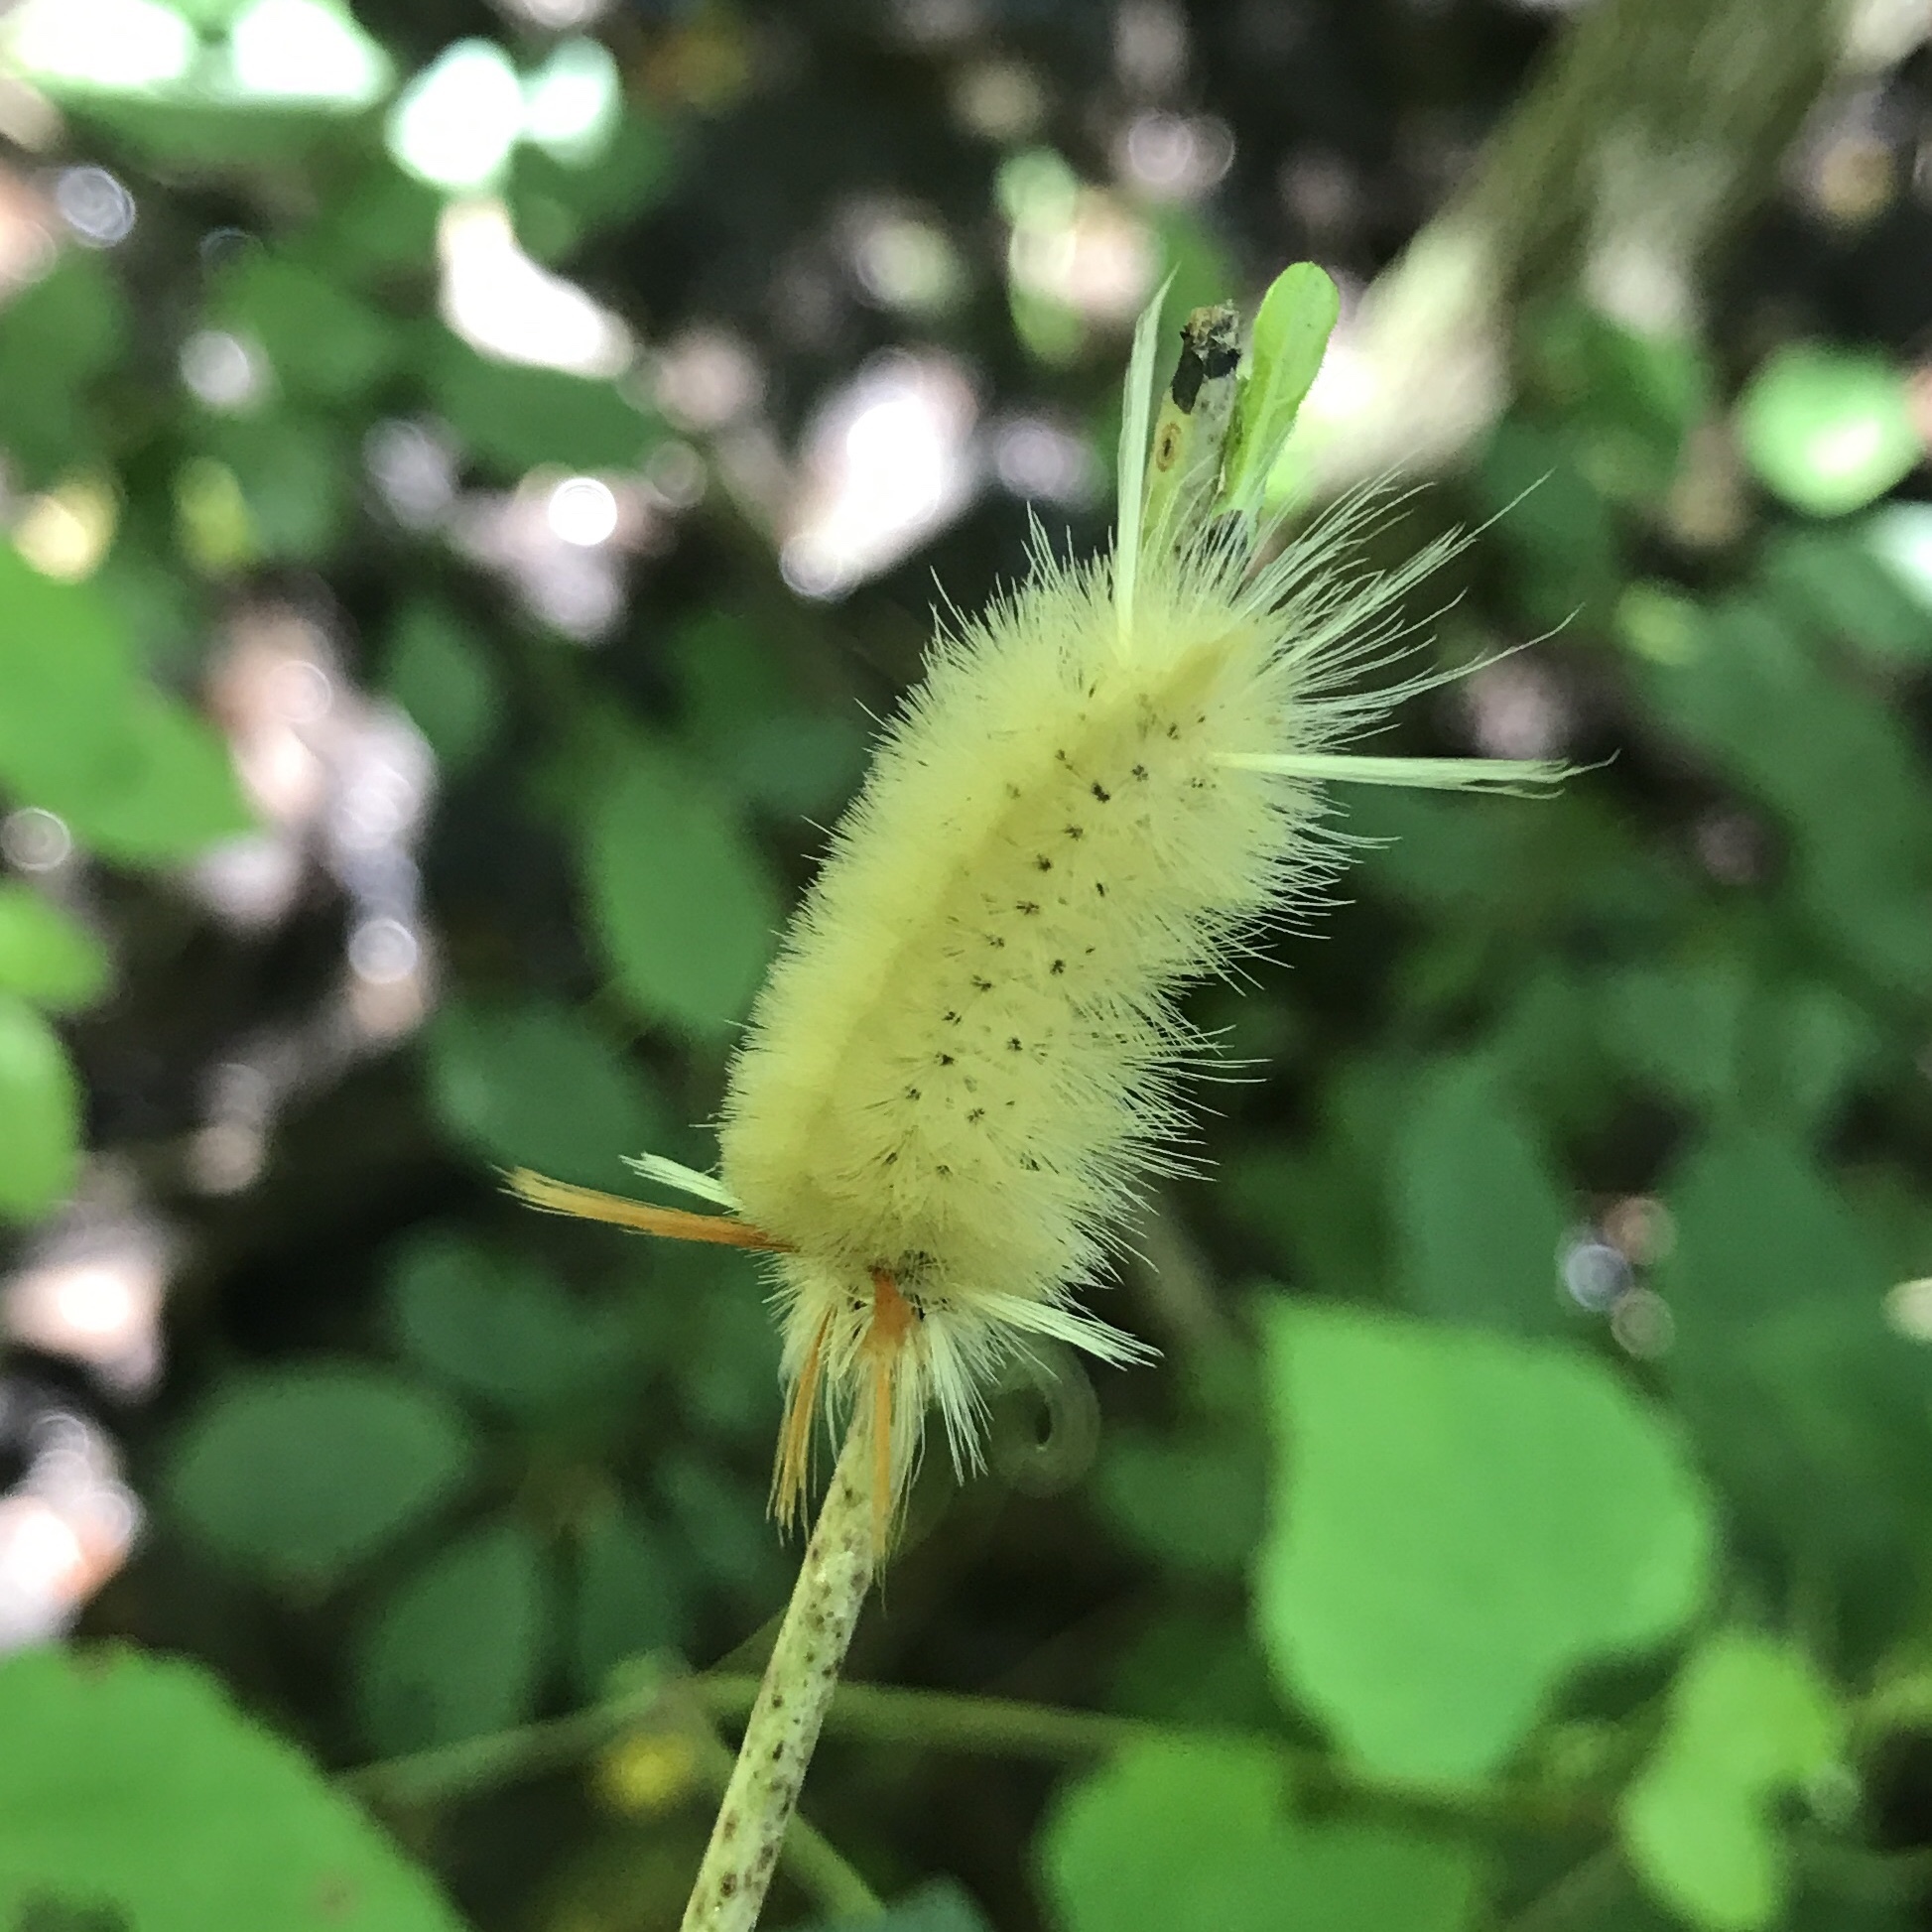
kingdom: Animalia
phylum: Arthropoda
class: Insecta
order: Lepidoptera
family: Erebidae
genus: Halysidota
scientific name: Halysidota harrisii
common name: Sycamore tussock moth
